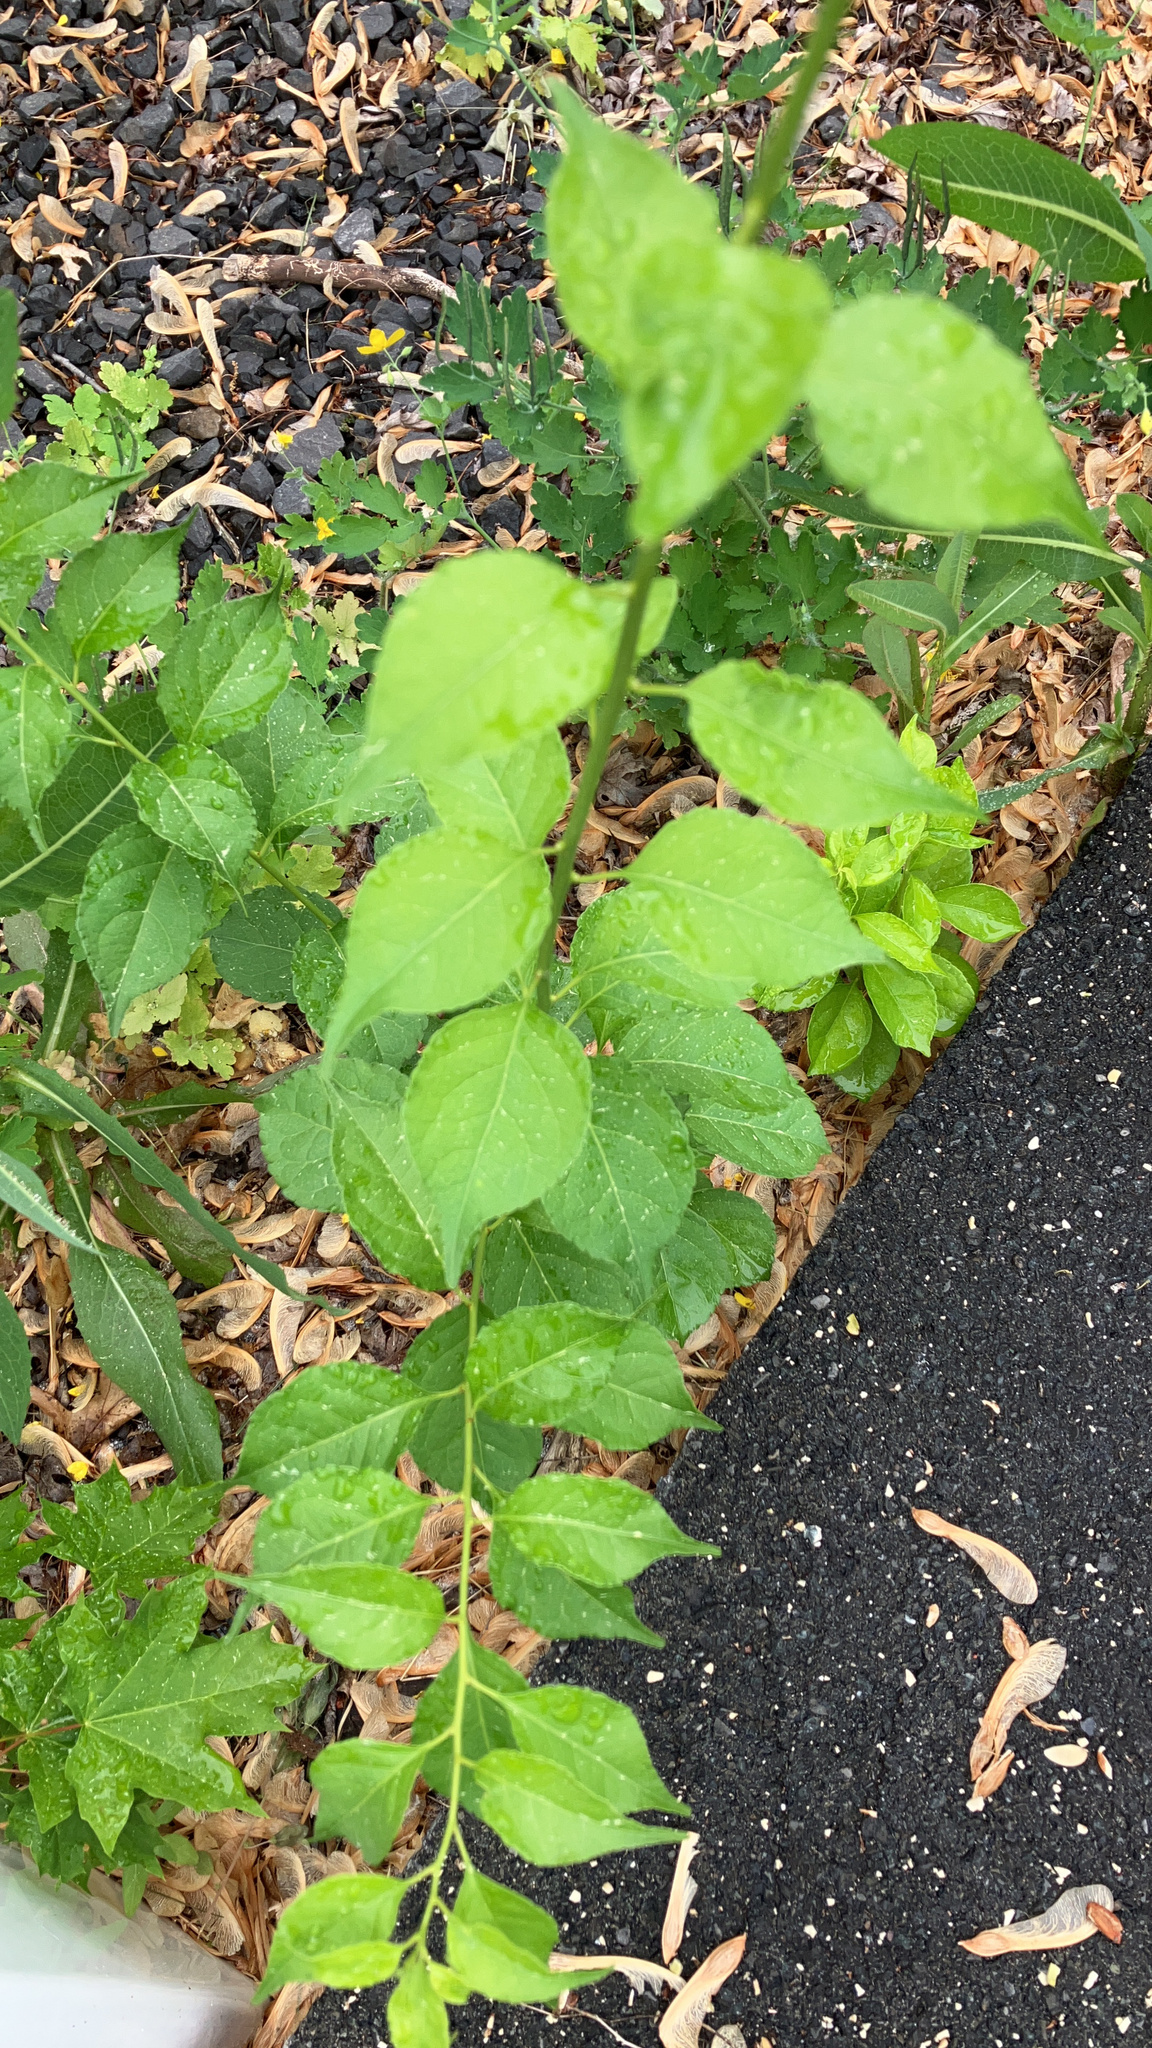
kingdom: Plantae
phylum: Tracheophyta
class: Magnoliopsida
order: Celastrales
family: Celastraceae
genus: Celastrus
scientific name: Celastrus orbiculatus
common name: Oriental bittersweet
